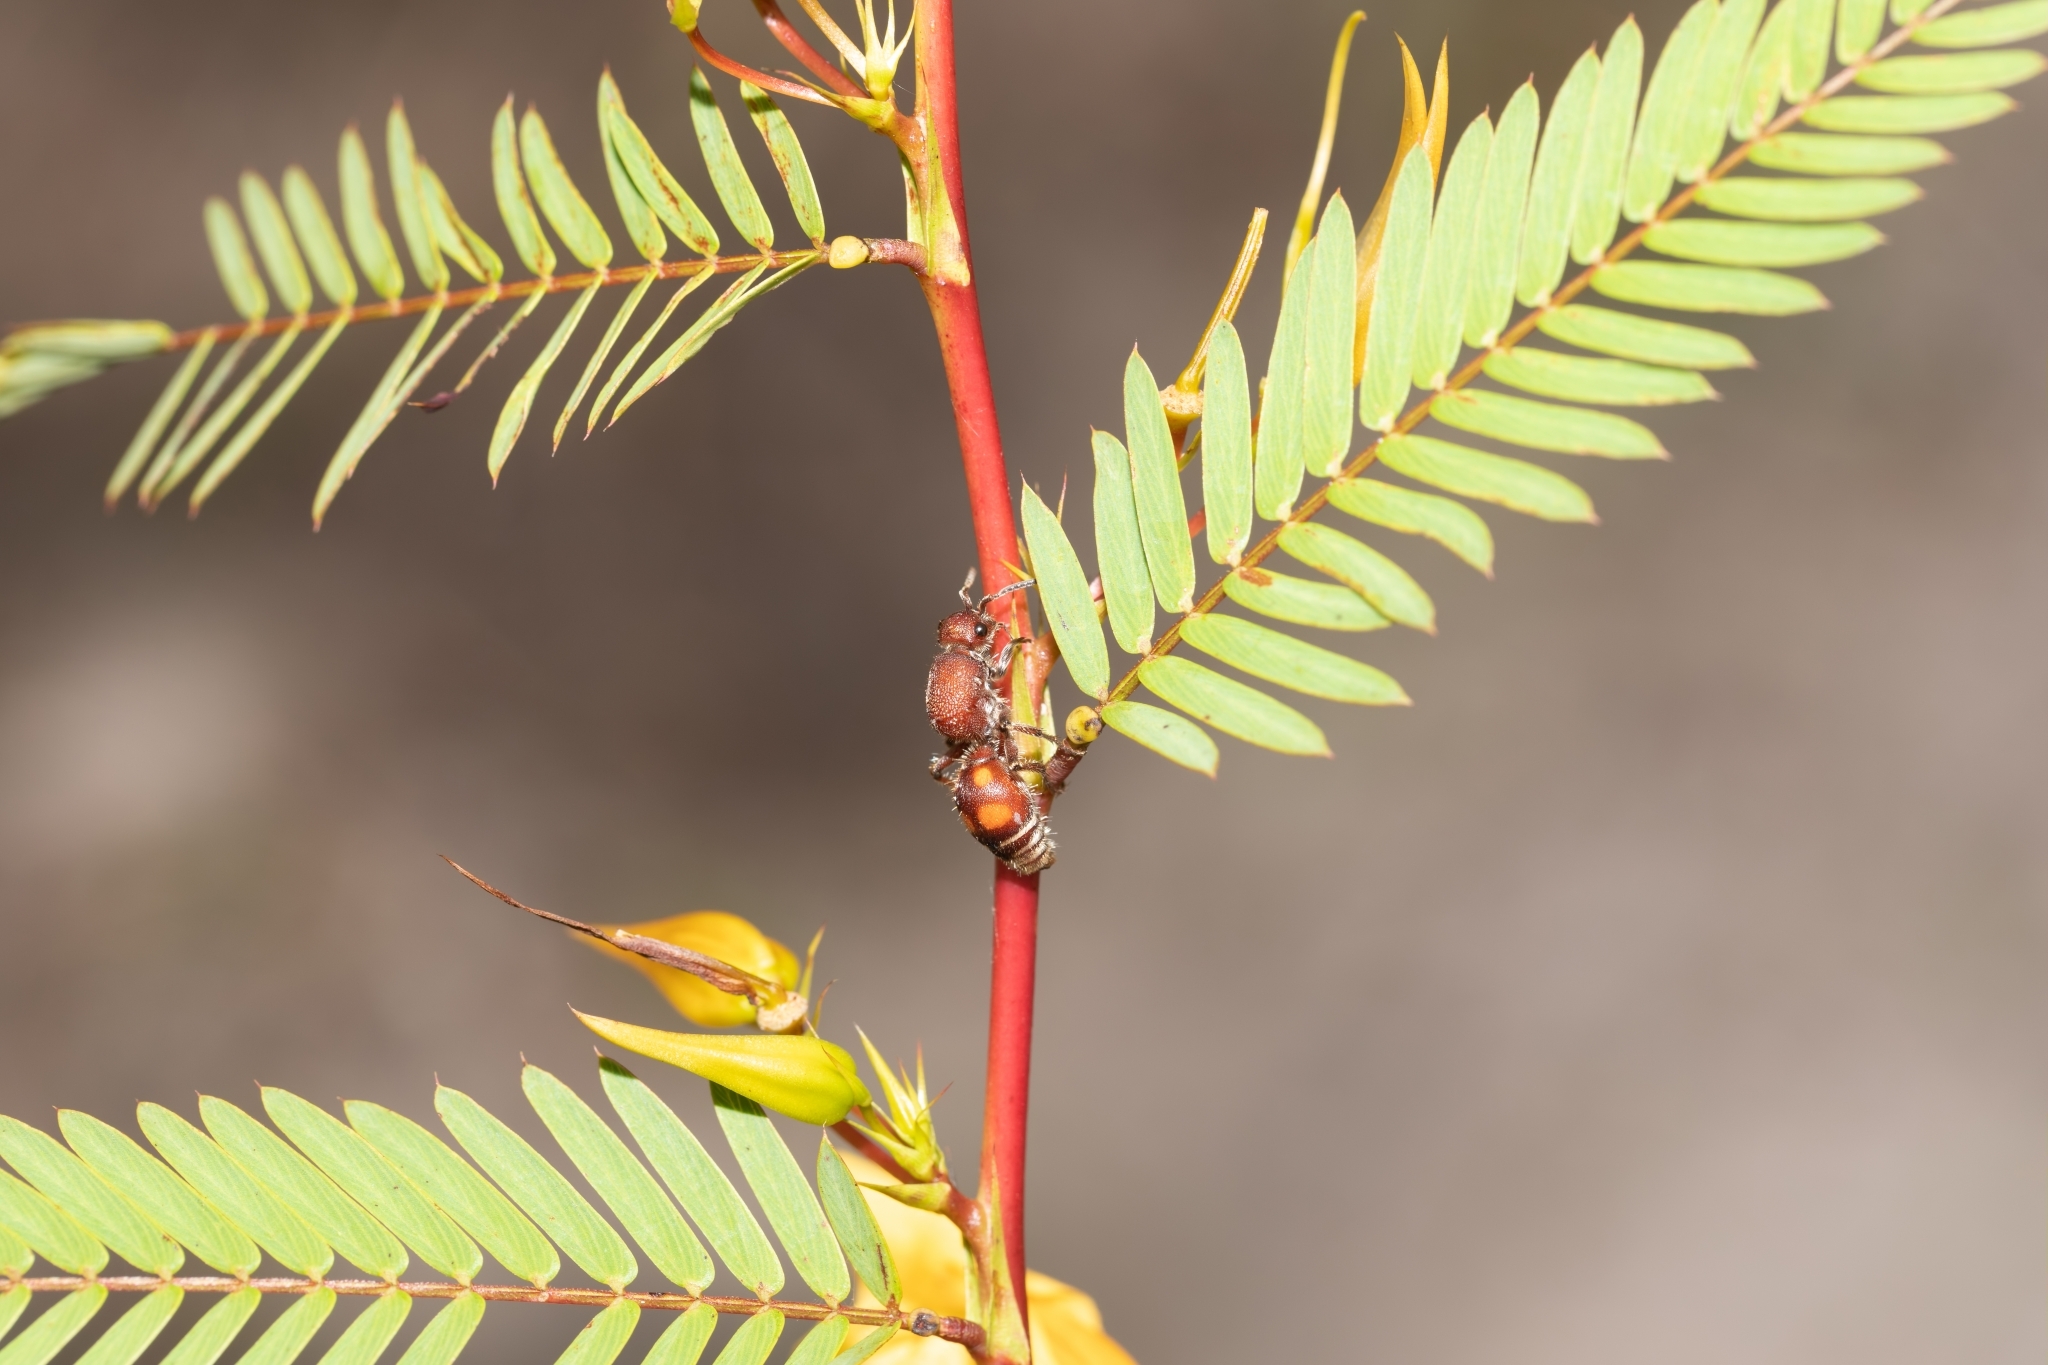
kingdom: Animalia
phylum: Arthropoda
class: Insecta
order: Hymenoptera
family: Mutillidae
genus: Dasymutilla
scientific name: Dasymutilla
